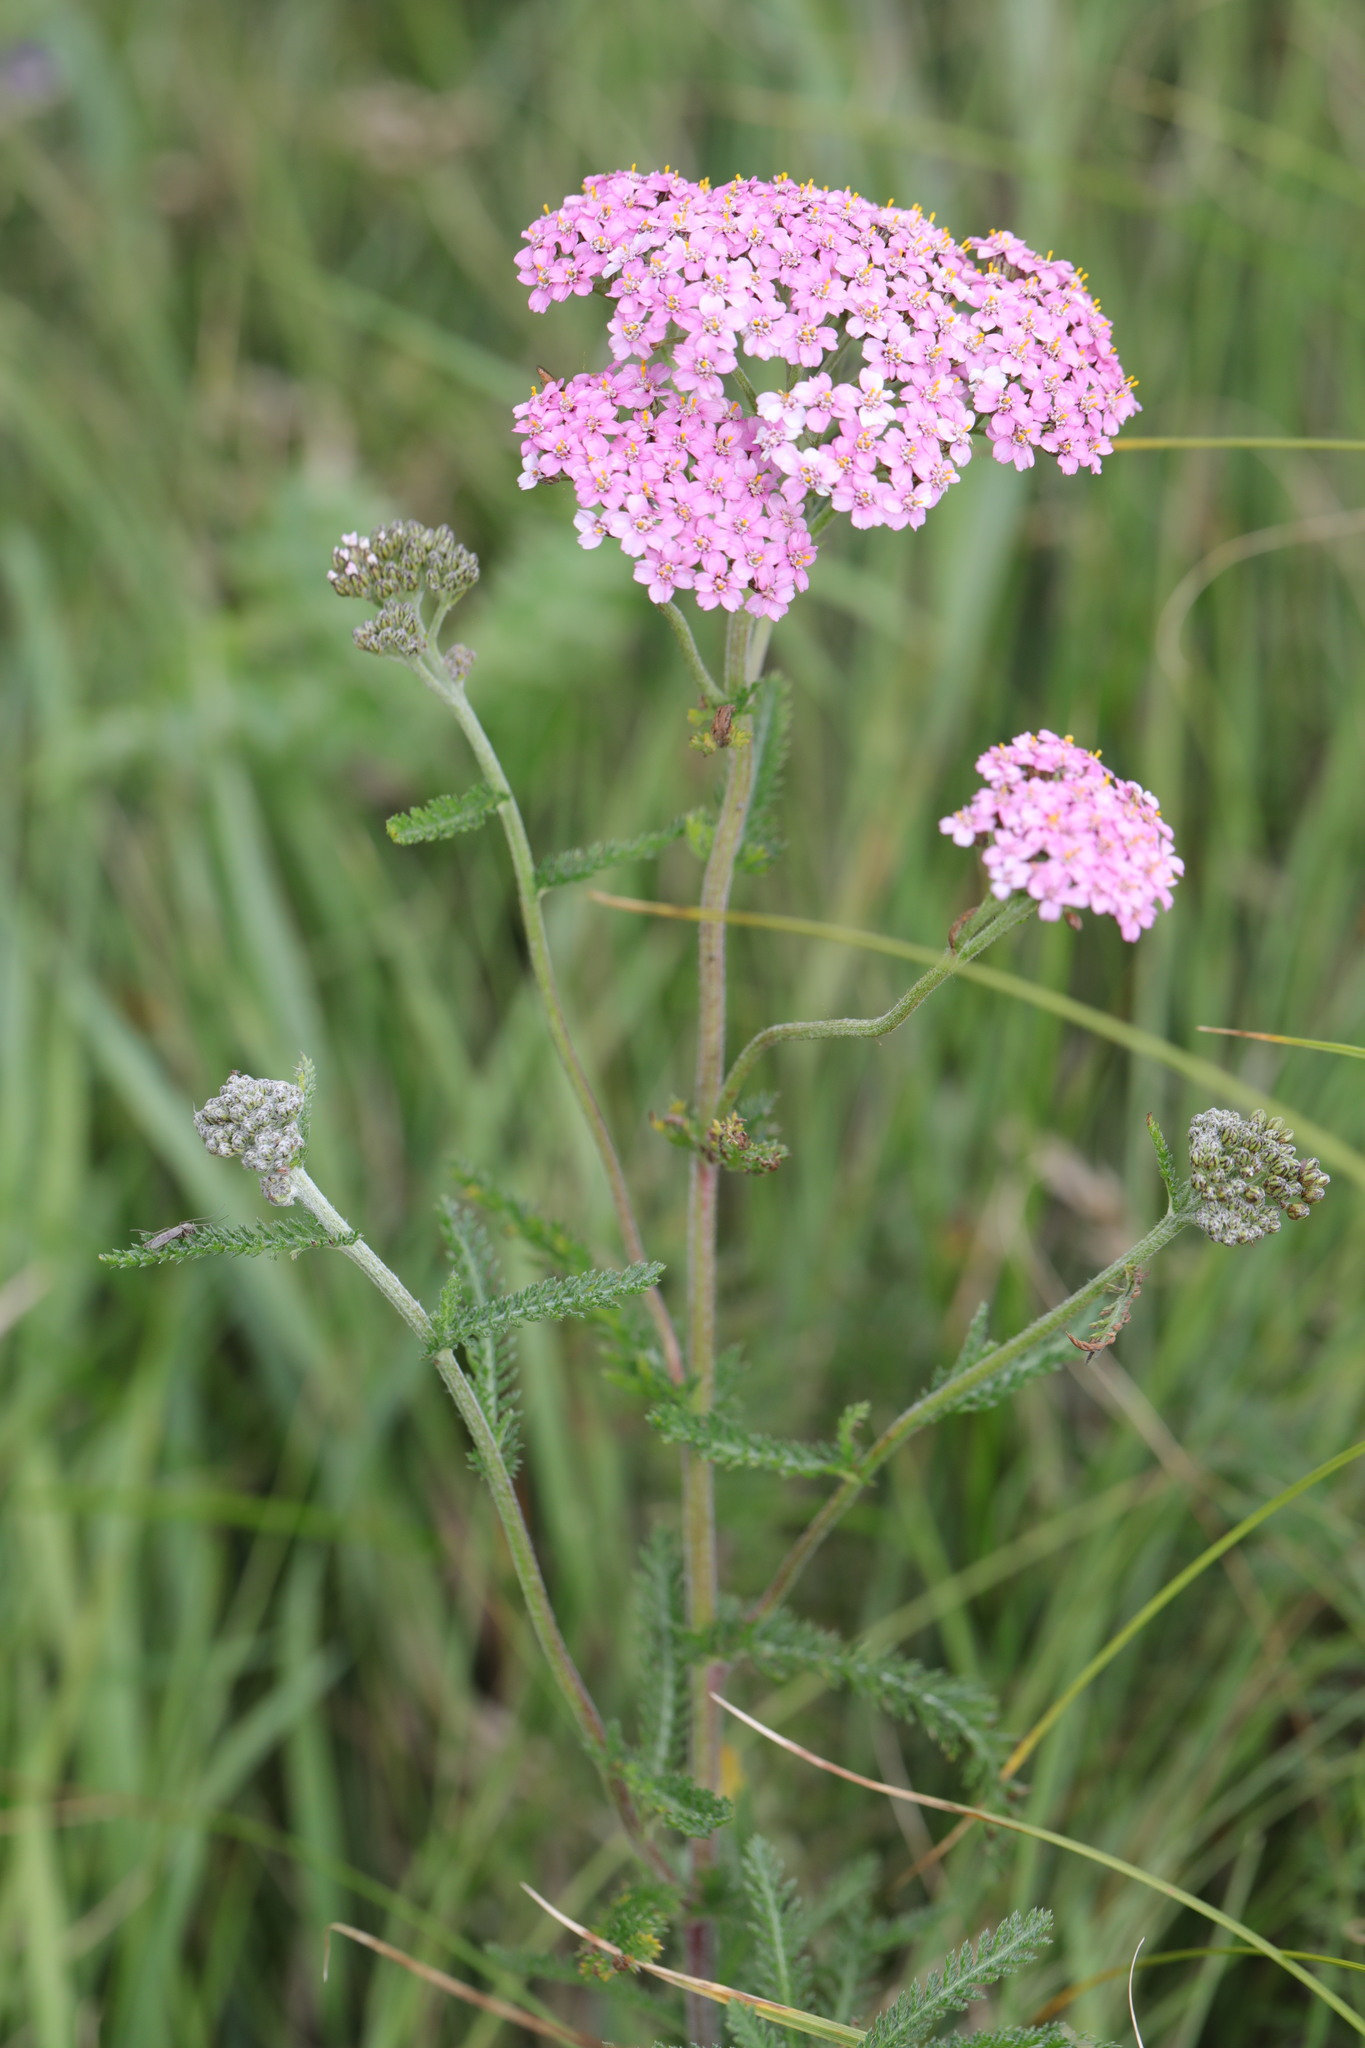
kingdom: Plantae
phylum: Tracheophyta
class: Magnoliopsida
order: Asterales
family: Asteraceae
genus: Achillea
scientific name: Achillea millefolium
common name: Yarrow
